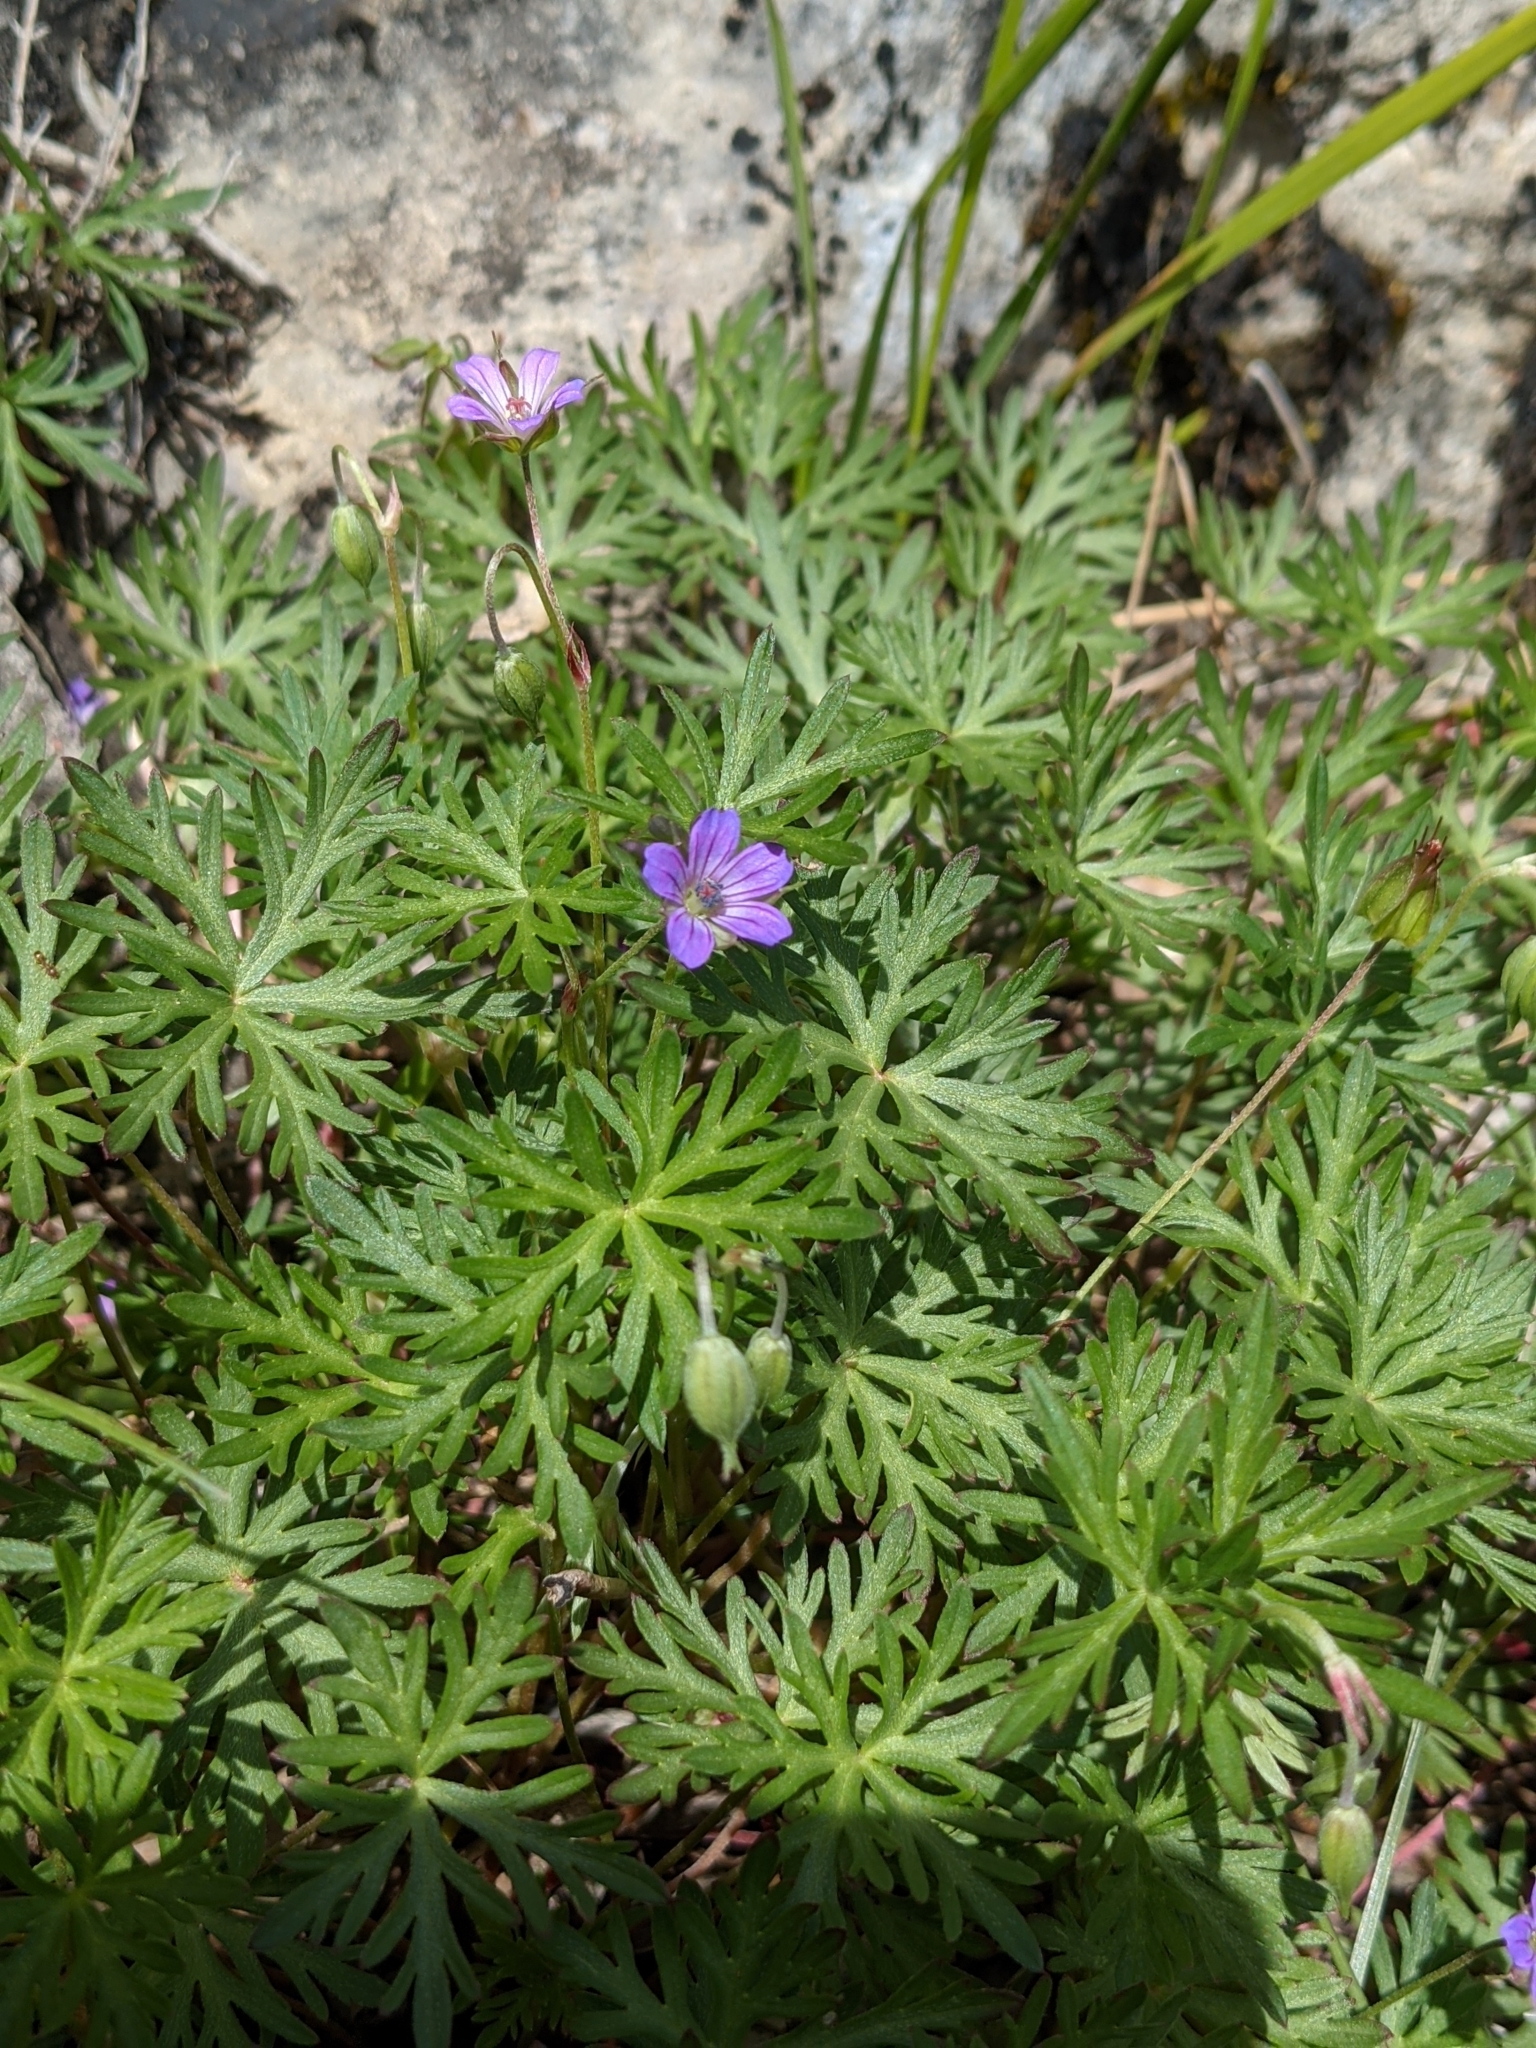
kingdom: Plantae
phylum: Tracheophyta
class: Magnoliopsida
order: Geraniales
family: Geraniaceae
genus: Geranium
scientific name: Geranium columbinum
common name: Long-stalked crane's-bill
